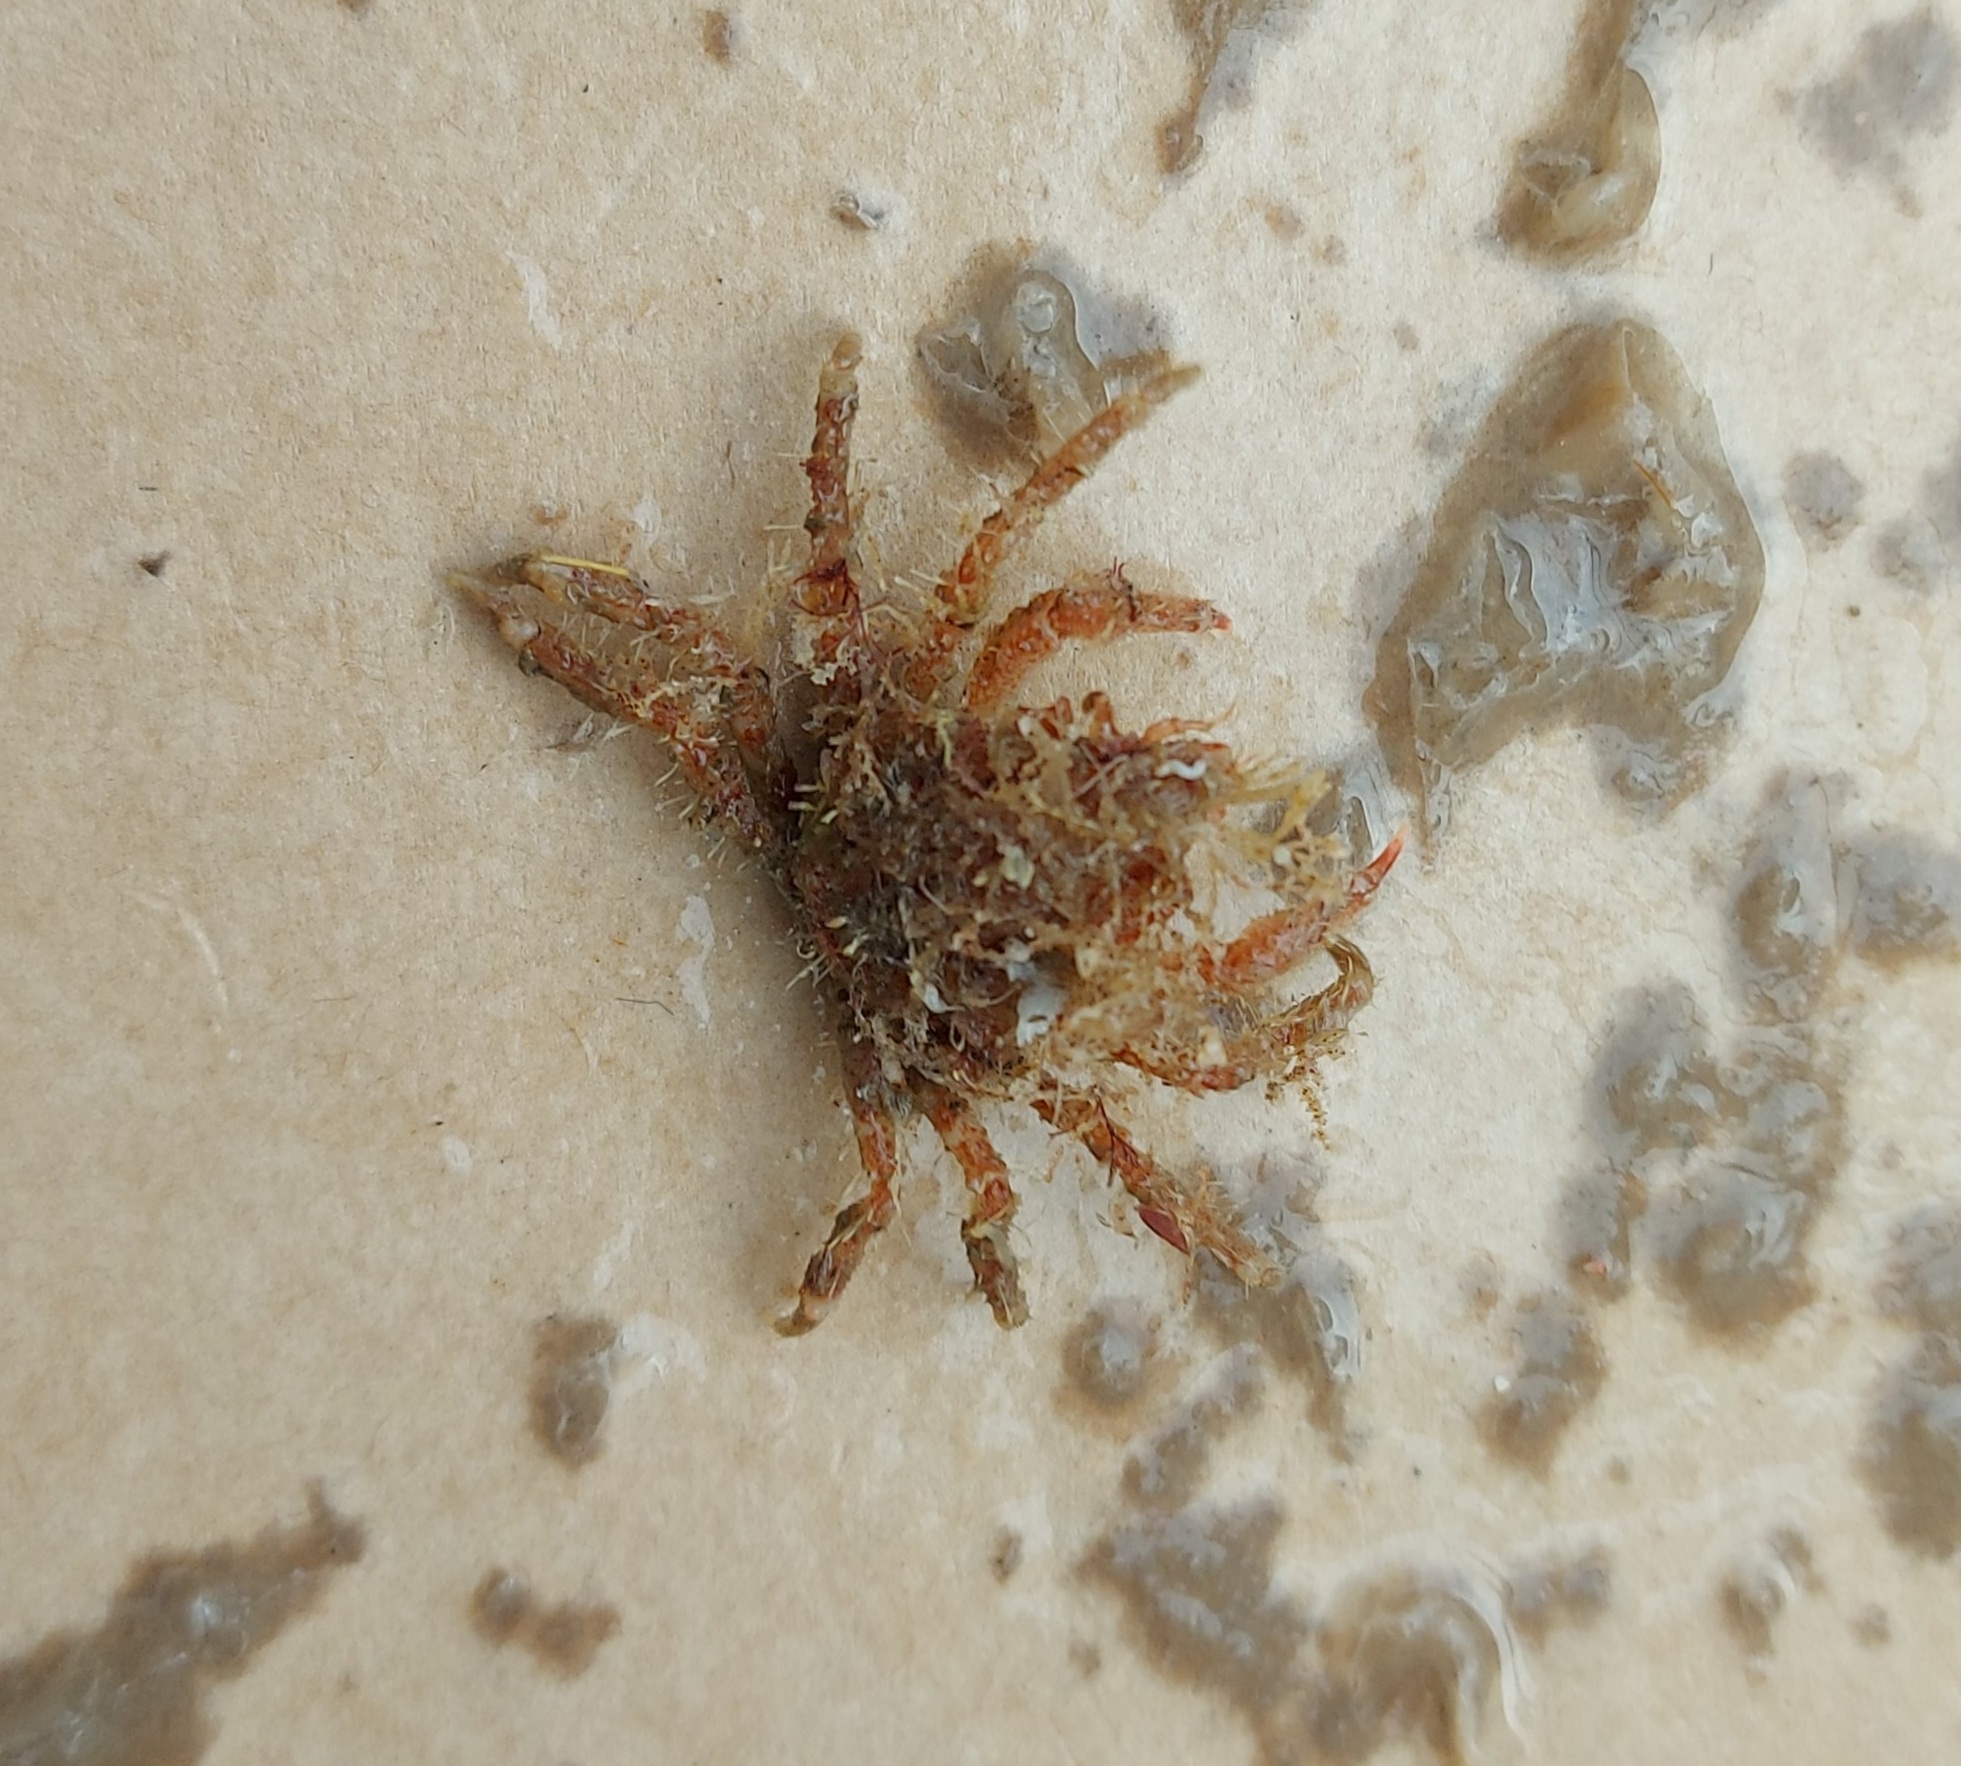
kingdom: Animalia
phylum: Arthropoda
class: Malacostraca
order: Decapoda
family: Oregoniidae
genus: Hyas
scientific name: Hyas coarctatus
